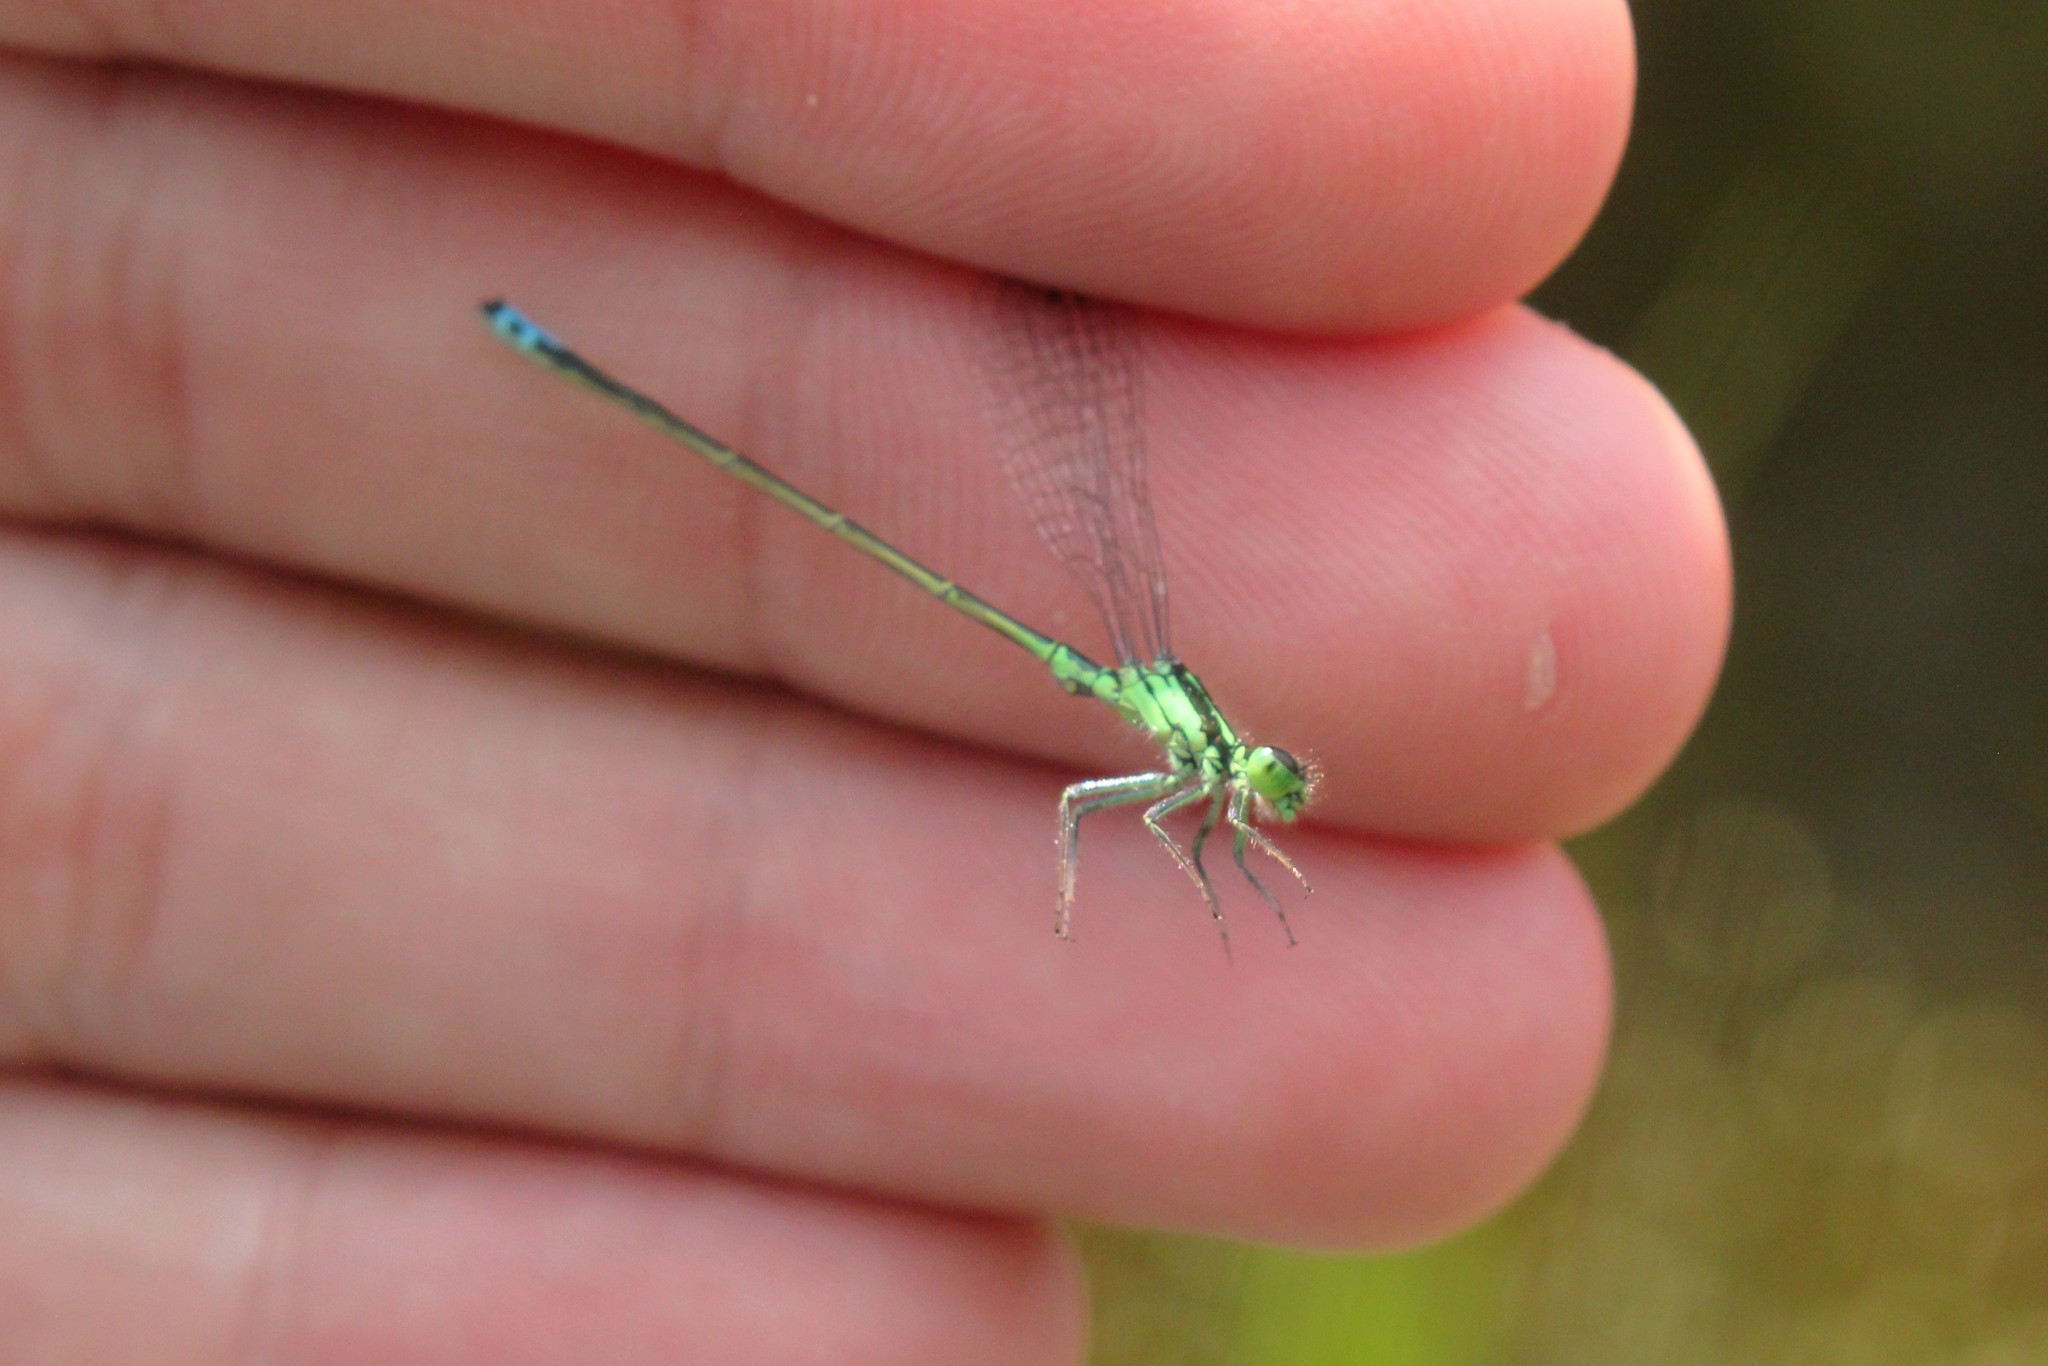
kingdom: Animalia
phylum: Arthropoda
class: Insecta
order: Odonata
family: Coenagrionidae
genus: Ischnura
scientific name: Ischnura verticalis
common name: Eastern forktail
